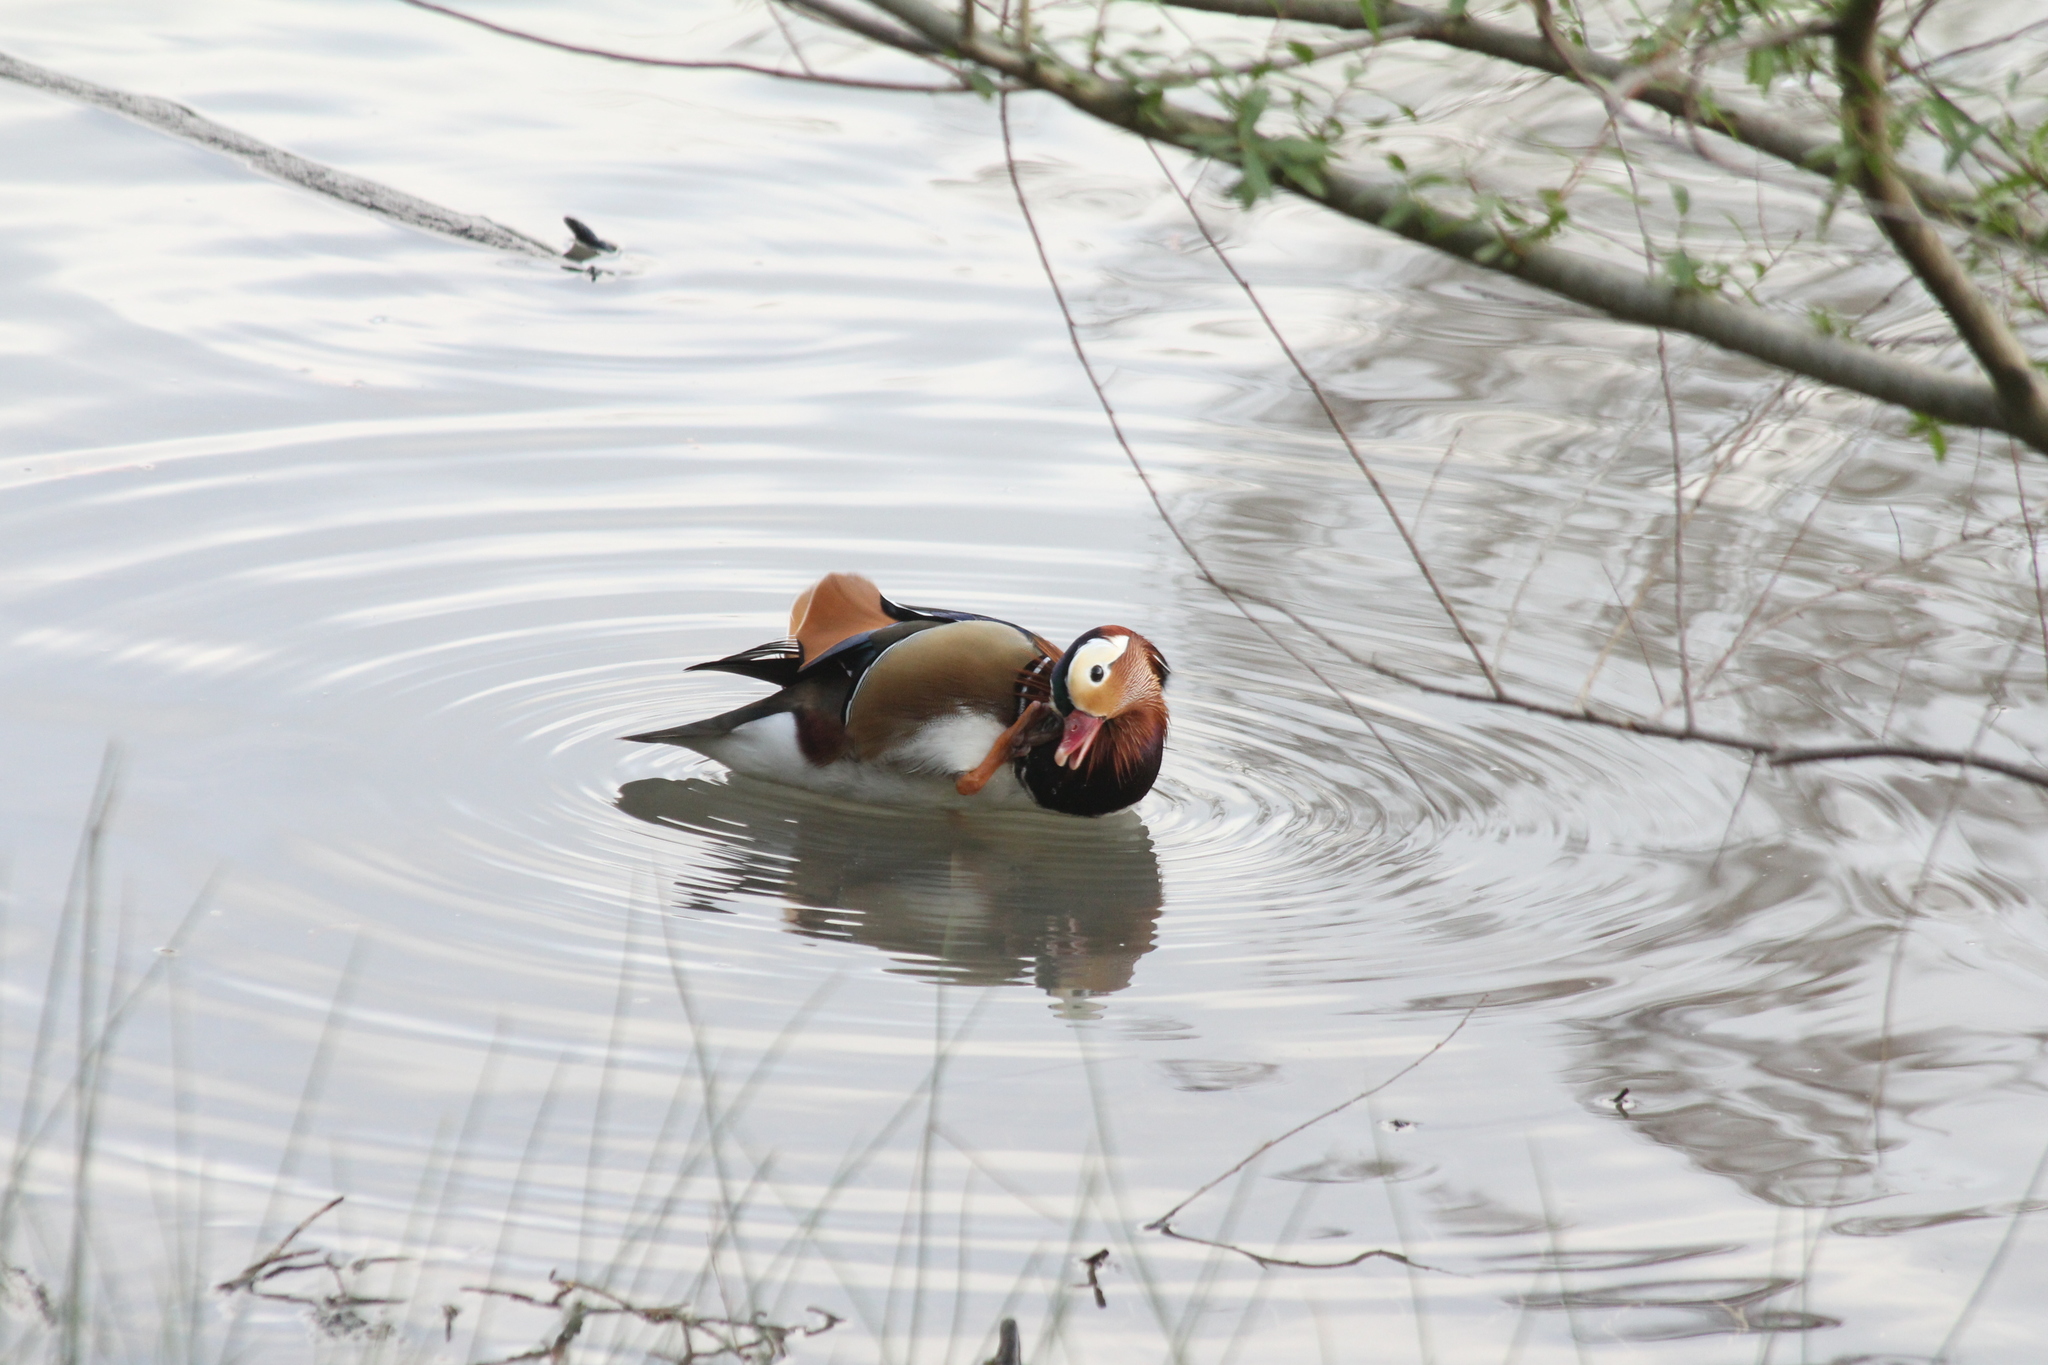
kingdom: Animalia
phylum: Chordata
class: Aves
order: Anseriformes
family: Anatidae
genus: Aix
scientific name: Aix galericulata
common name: Mandarin duck
